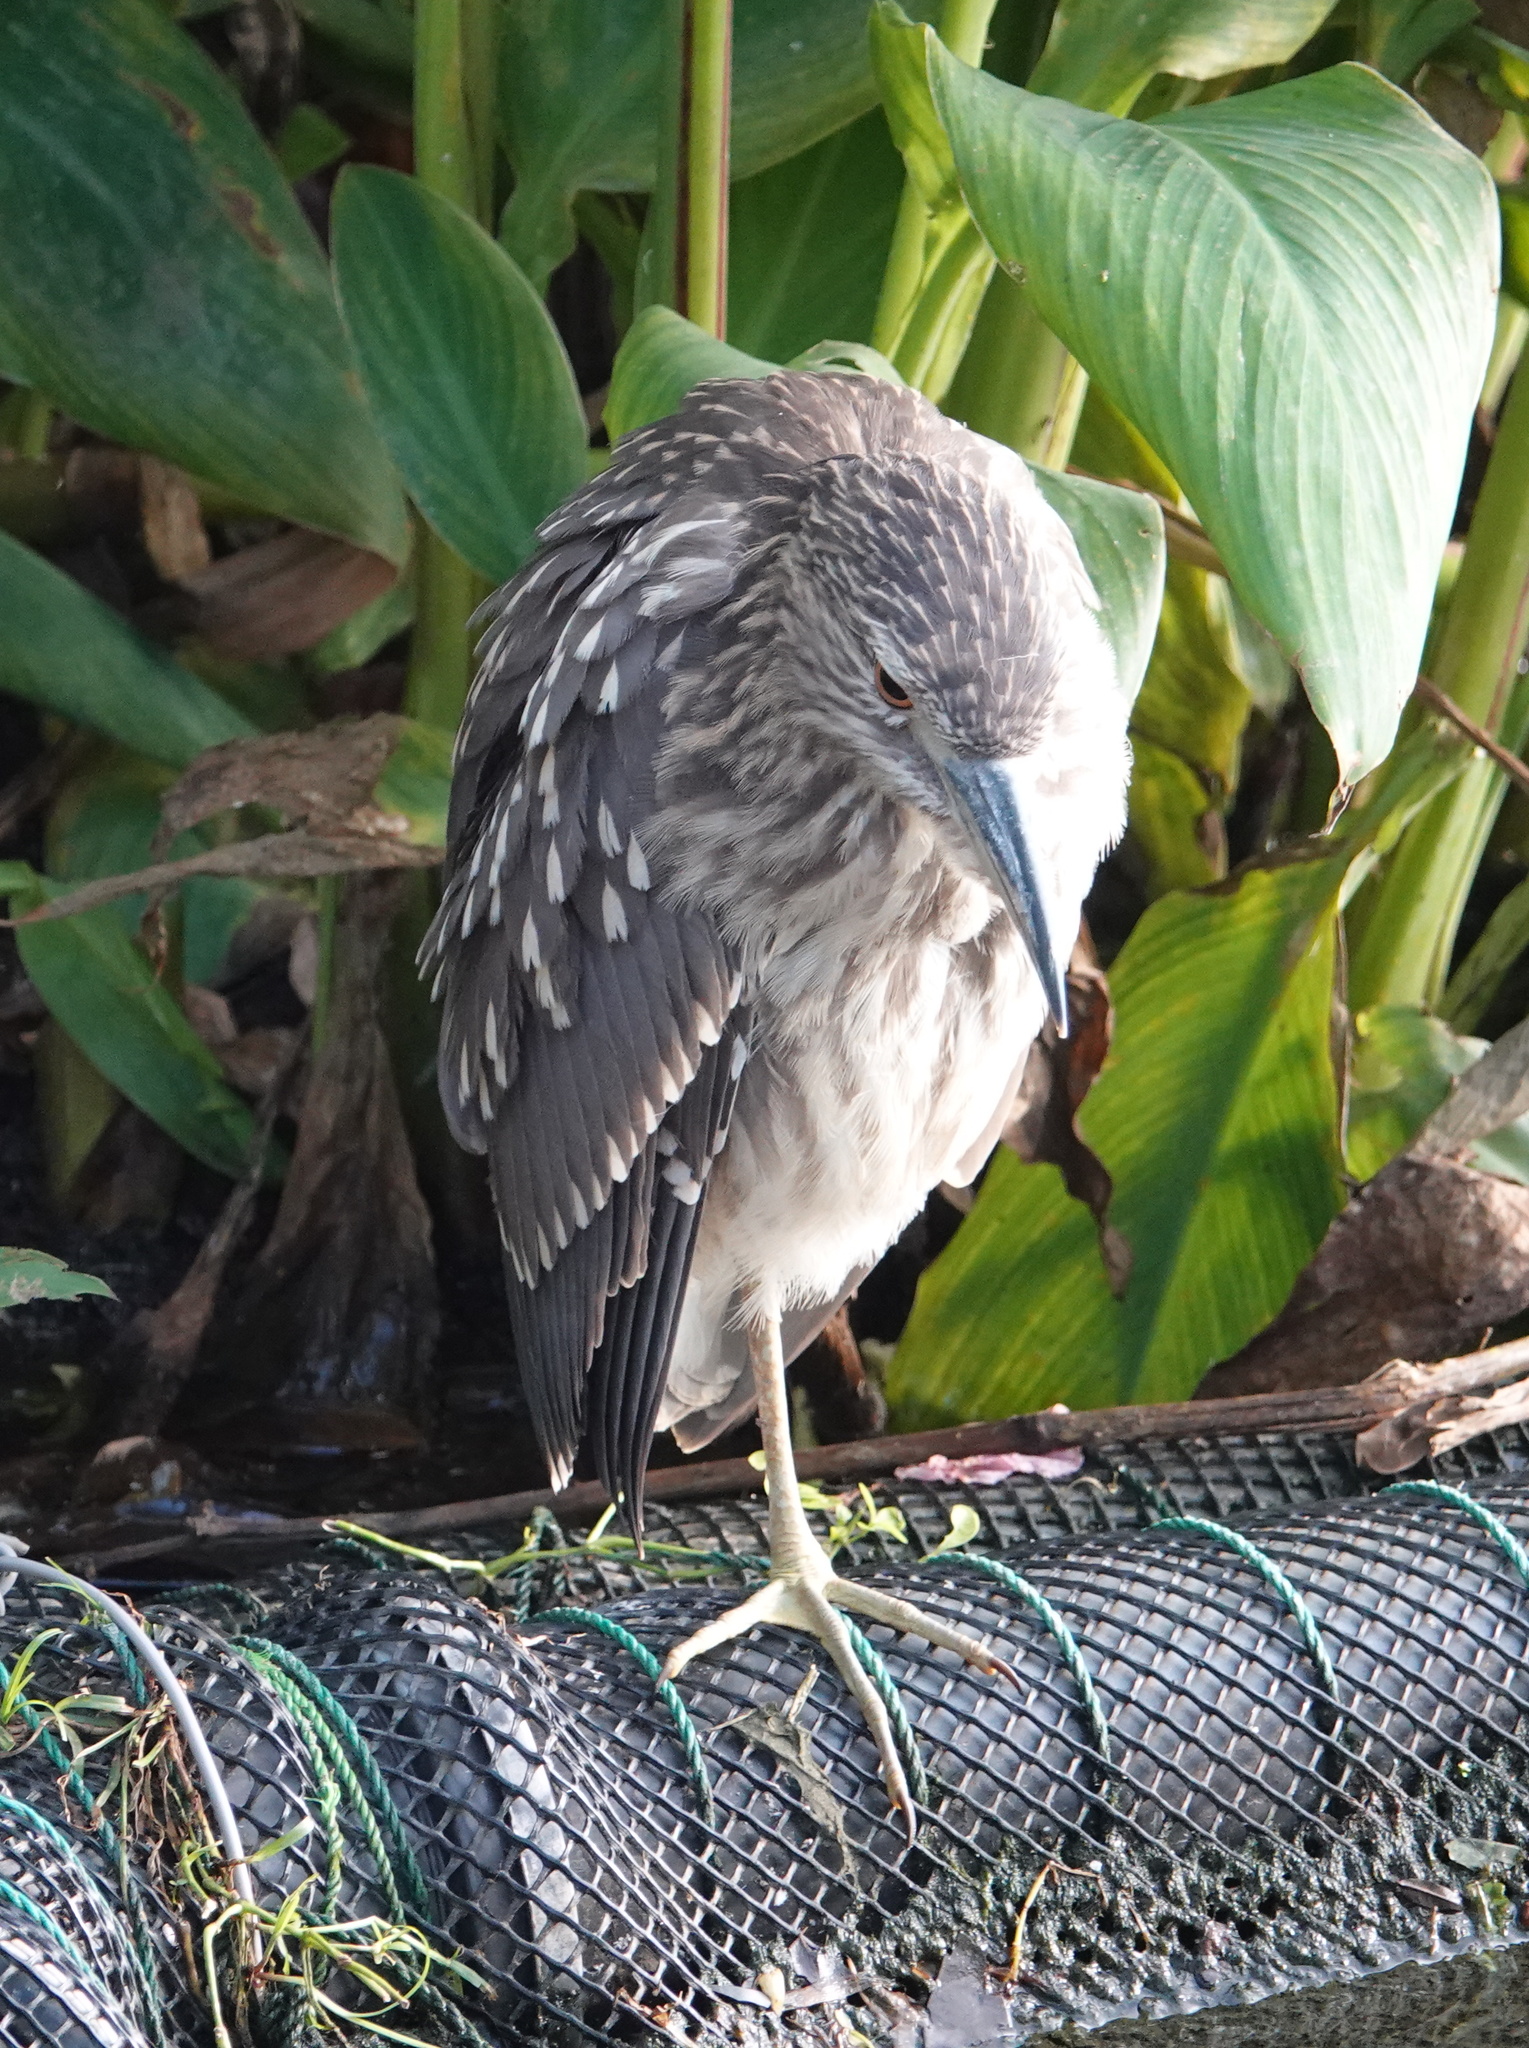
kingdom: Animalia
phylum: Chordata
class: Aves
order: Pelecaniformes
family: Ardeidae
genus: Nycticorax
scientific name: Nycticorax nycticorax
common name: Black-crowned night heron
